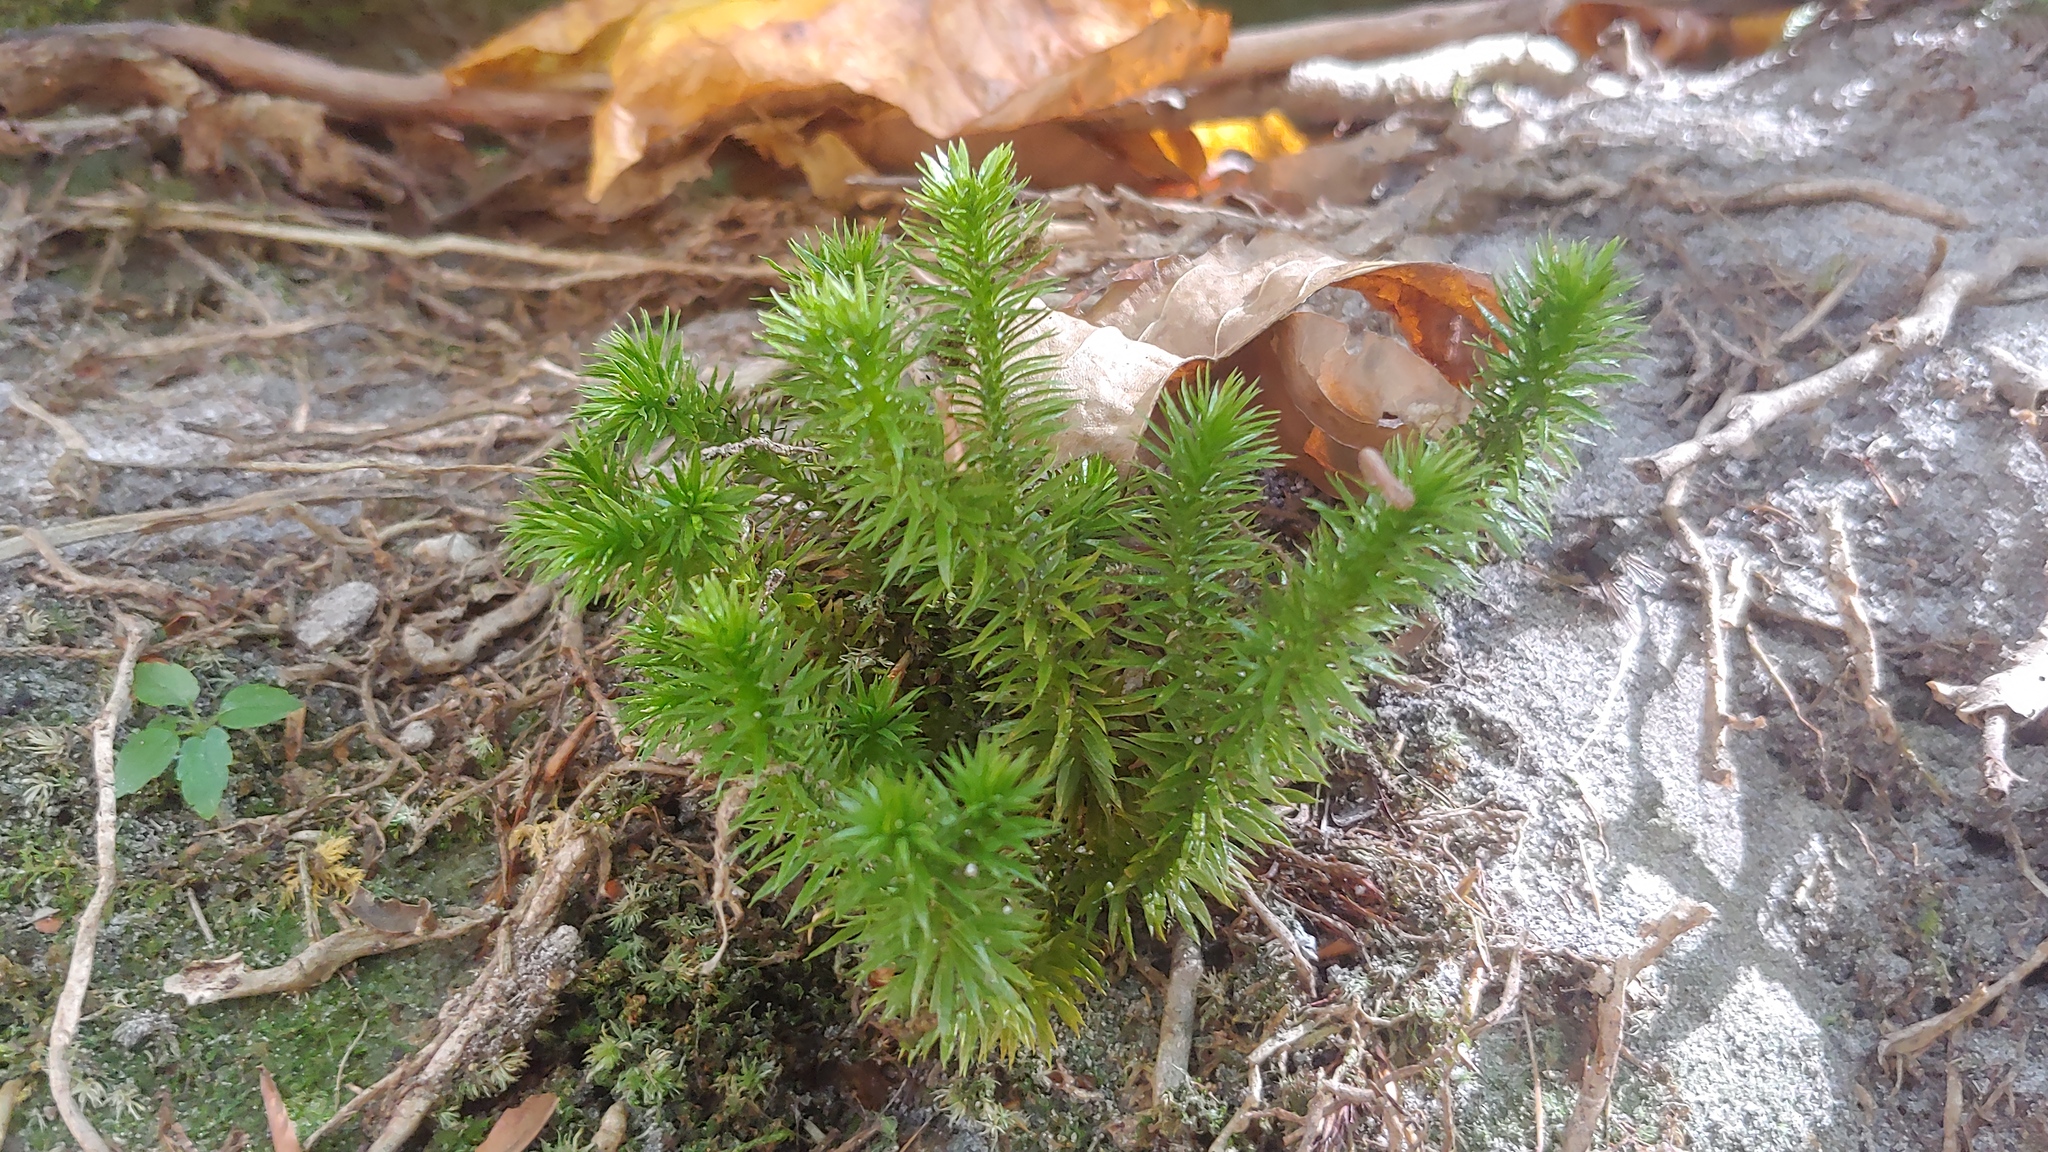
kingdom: Plantae
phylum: Tracheophyta
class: Lycopodiopsida
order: Lycopodiales
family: Lycopodiaceae
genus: Huperzia
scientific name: Huperzia porophila
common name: Rock clubmoss
